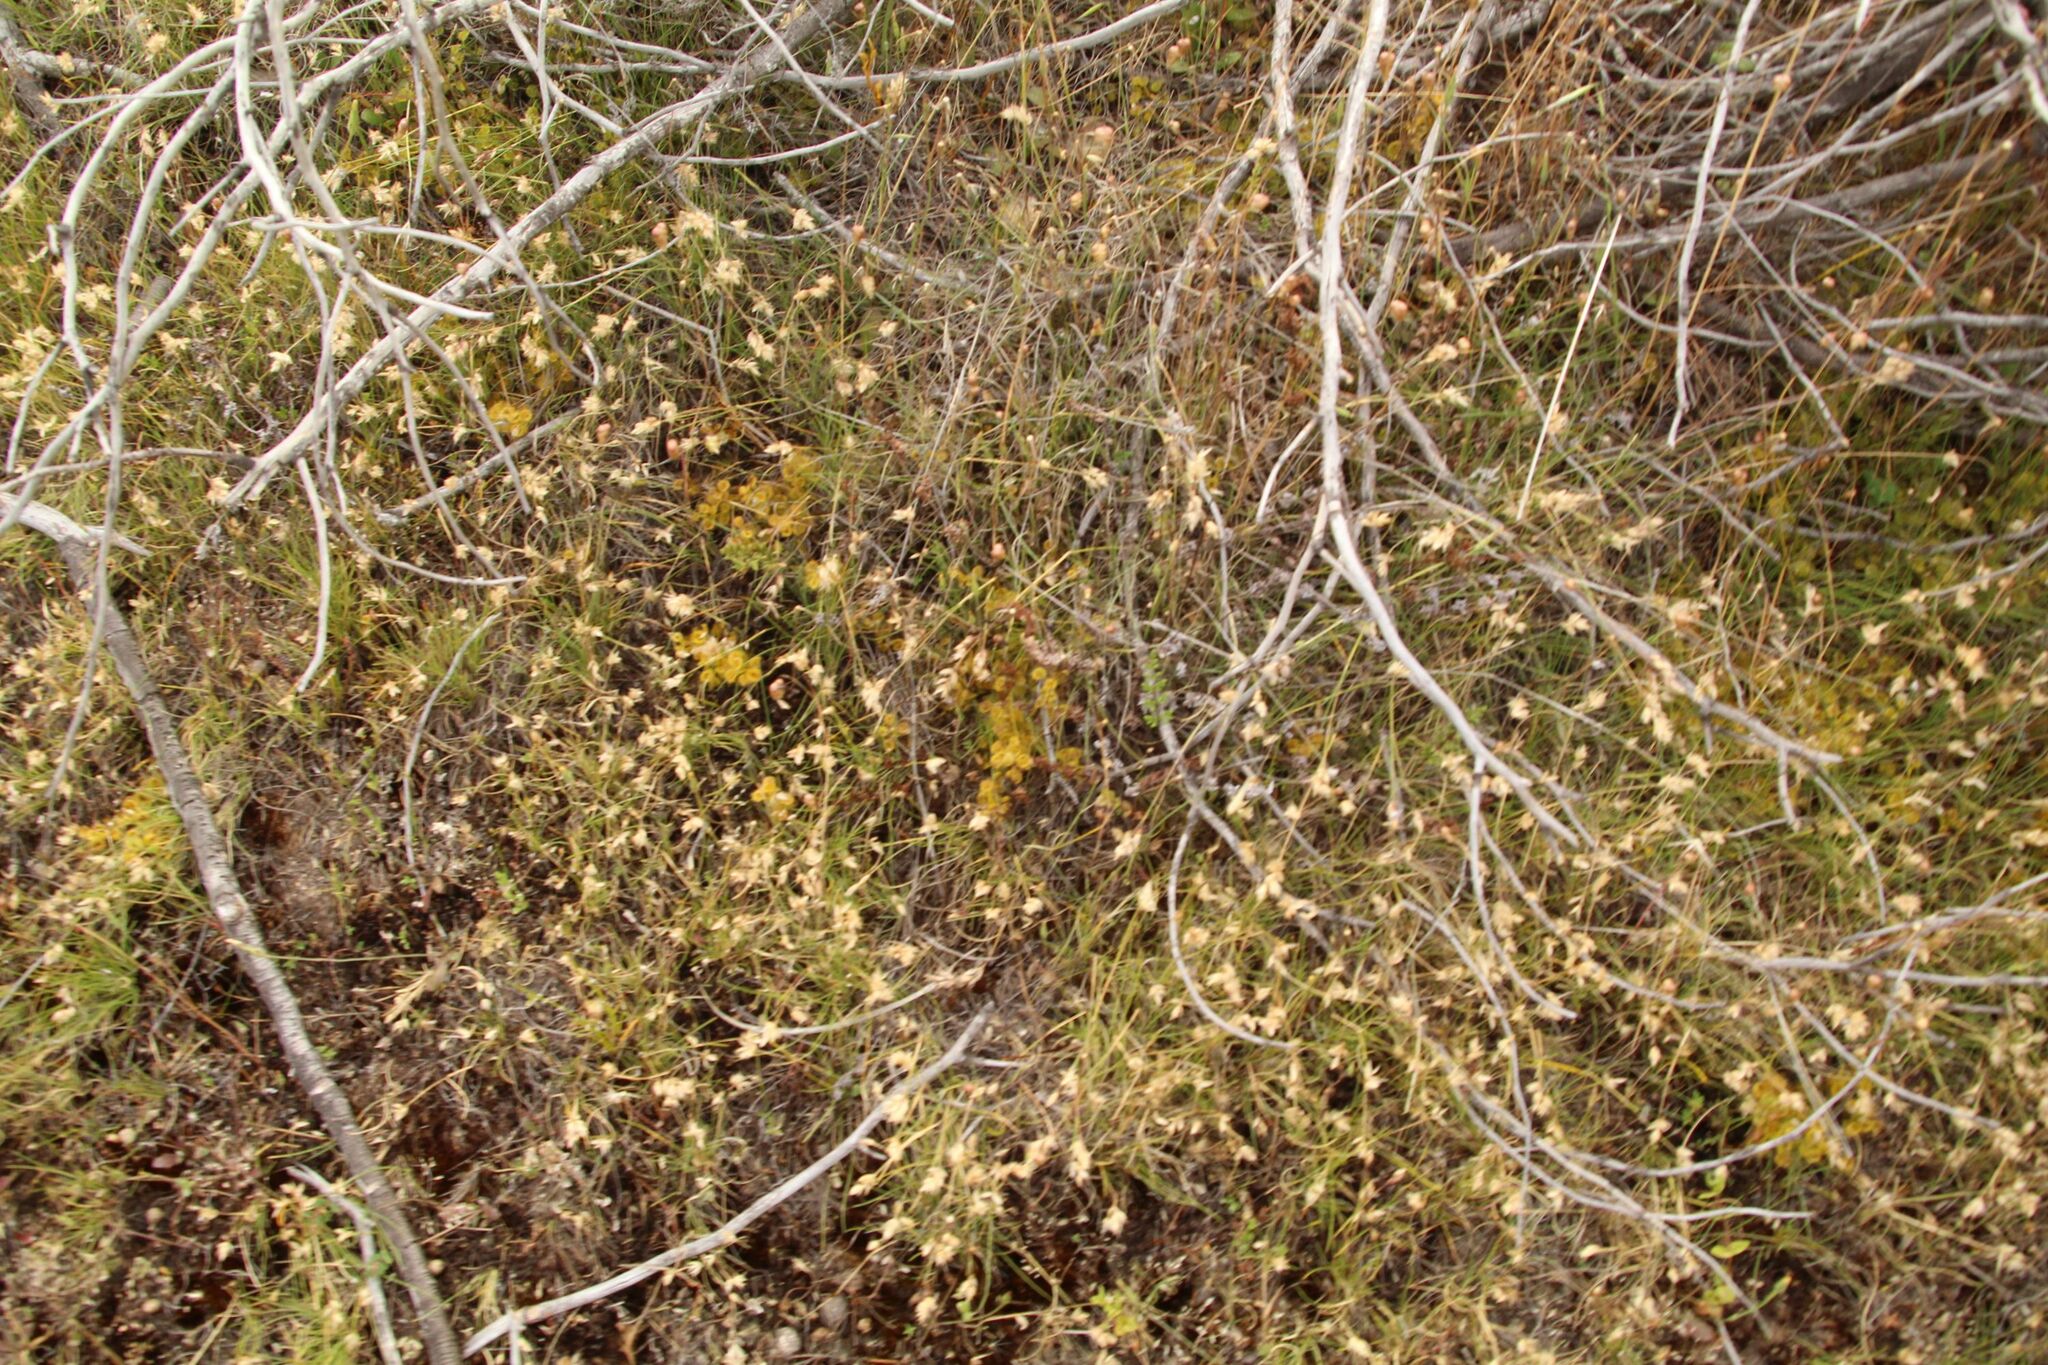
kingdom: Plantae
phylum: Tracheophyta
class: Magnoliopsida
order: Caryophyllales
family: Droseraceae
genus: Drosera
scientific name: Drosera rupicola
